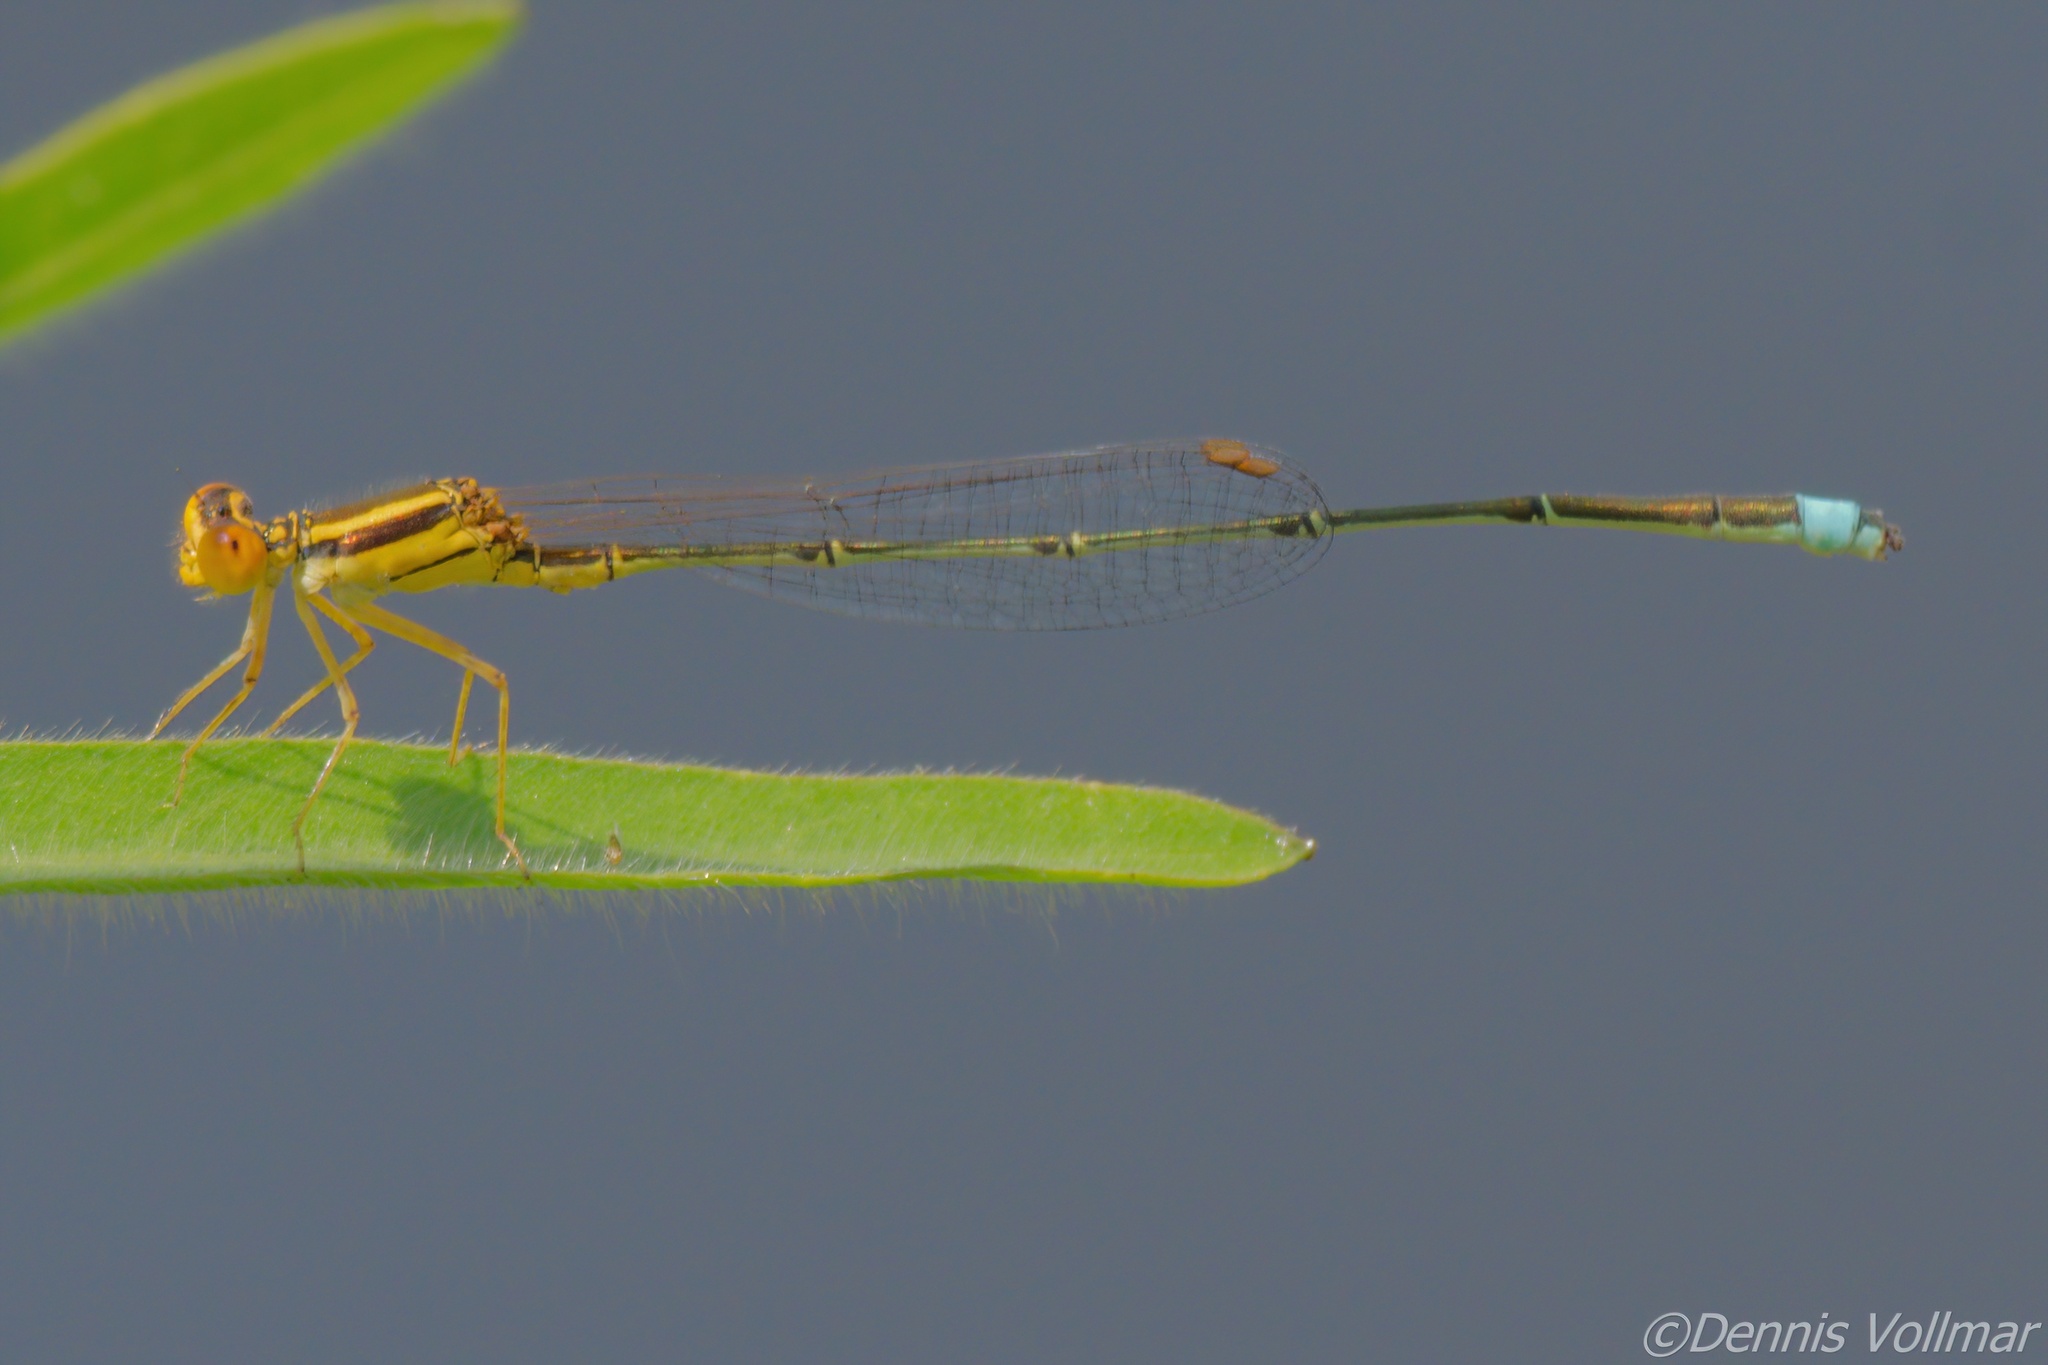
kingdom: Animalia
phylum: Arthropoda
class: Insecta
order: Odonata
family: Coenagrionidae
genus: Enallagma
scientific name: Enallagma sulcatum
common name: Golden bluet
